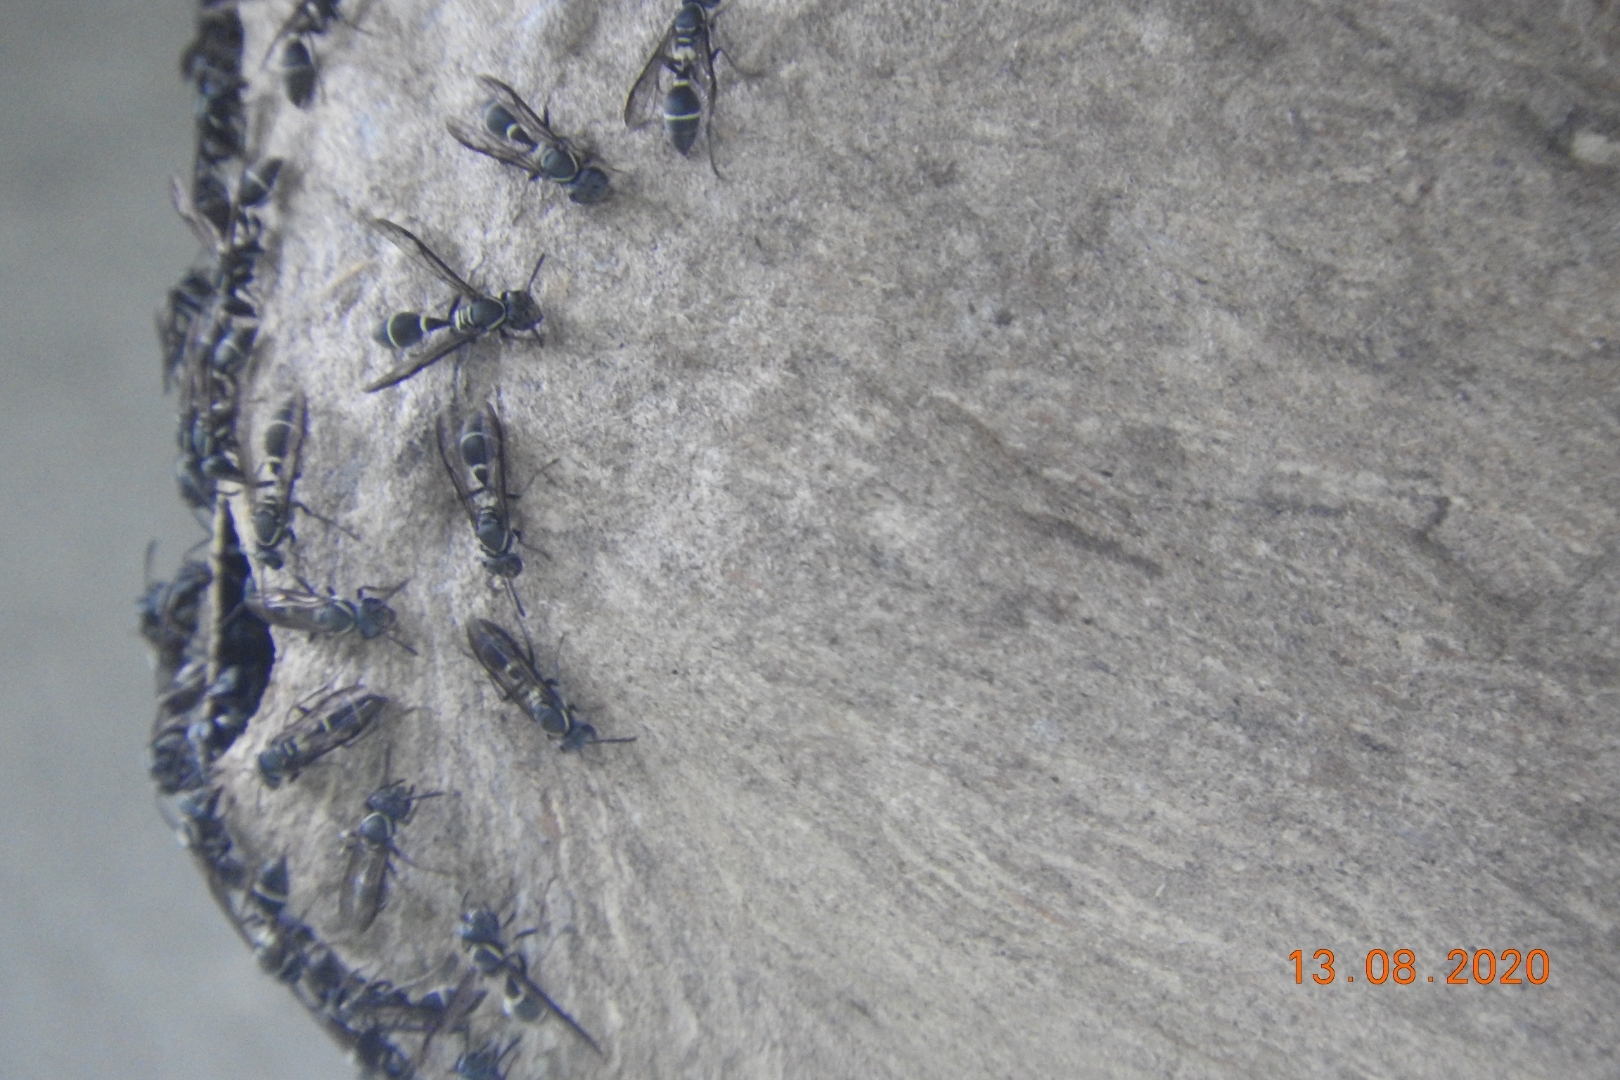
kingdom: Animalia
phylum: Arthropoda
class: Insecta
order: Hymenoptera
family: Eumenidae
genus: Polybia
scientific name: Polybia plebeja
